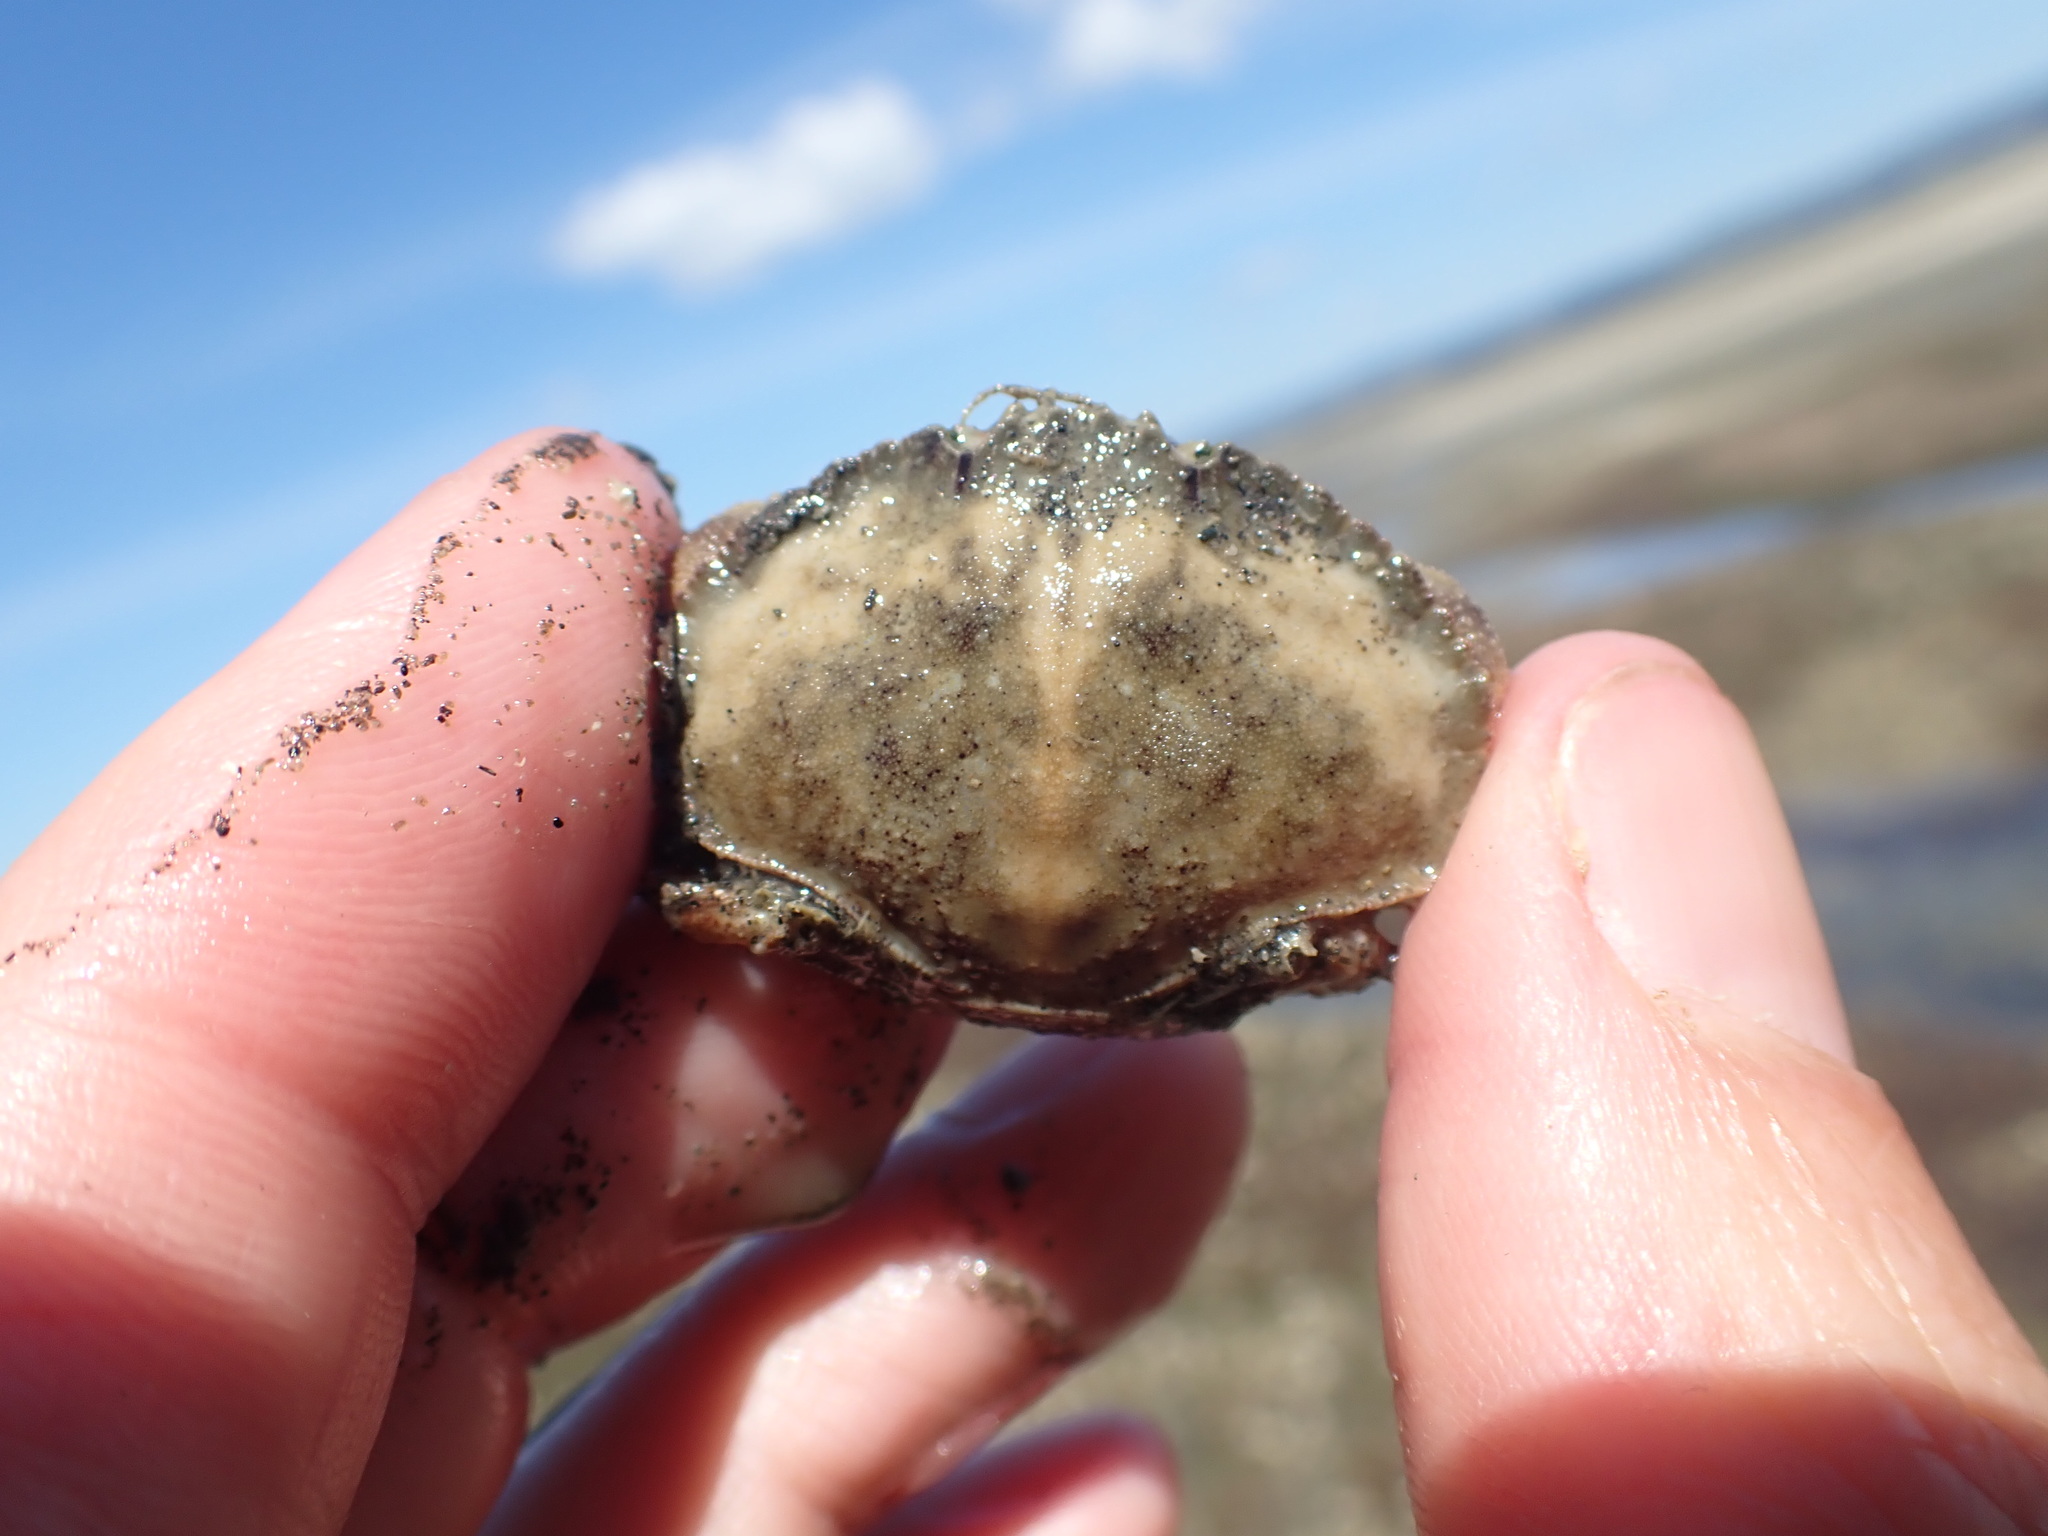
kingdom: Animalia
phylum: Arthropoda
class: Malacostraca
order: Decapoda
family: Cancridae
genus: Metacarcinus
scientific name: Metacarcinus novaezelandiae
